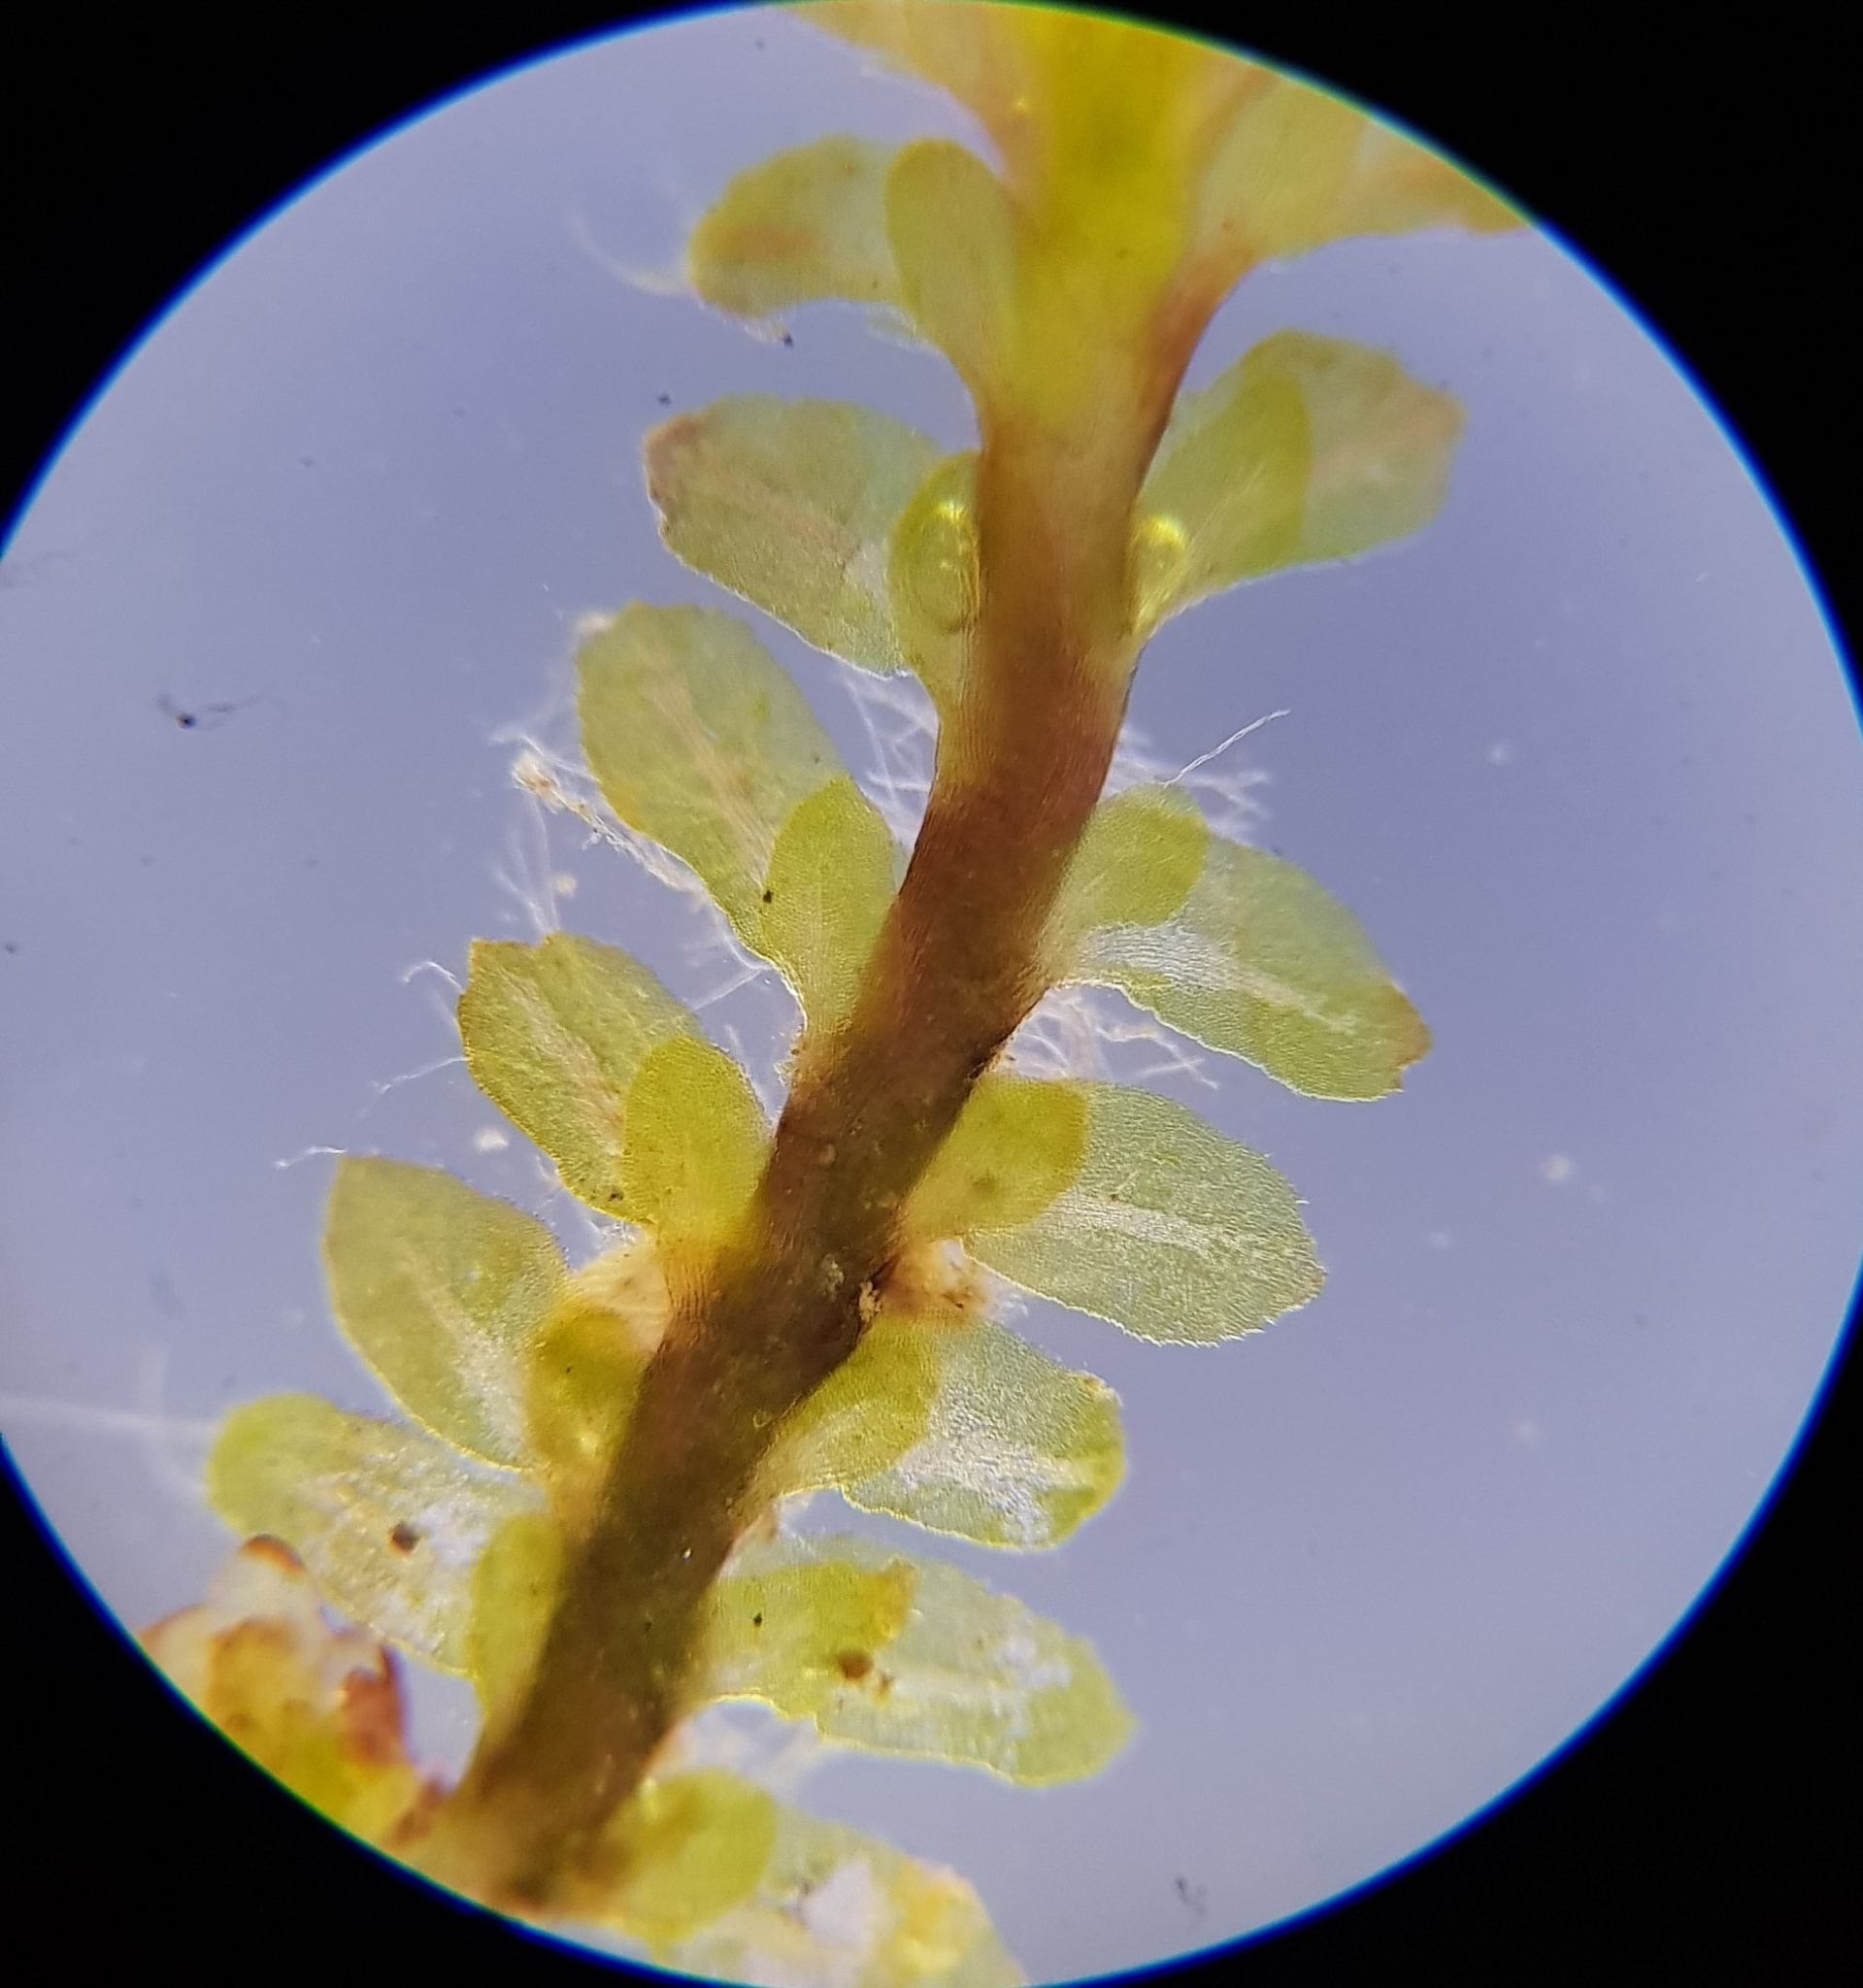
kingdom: Plantae
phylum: Marchantiophyta
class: Jungermanniopsida
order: Jungermanniales
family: Scapaniaceae
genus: Diplophyllum
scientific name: Diplophyllum albicans
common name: White earwort
